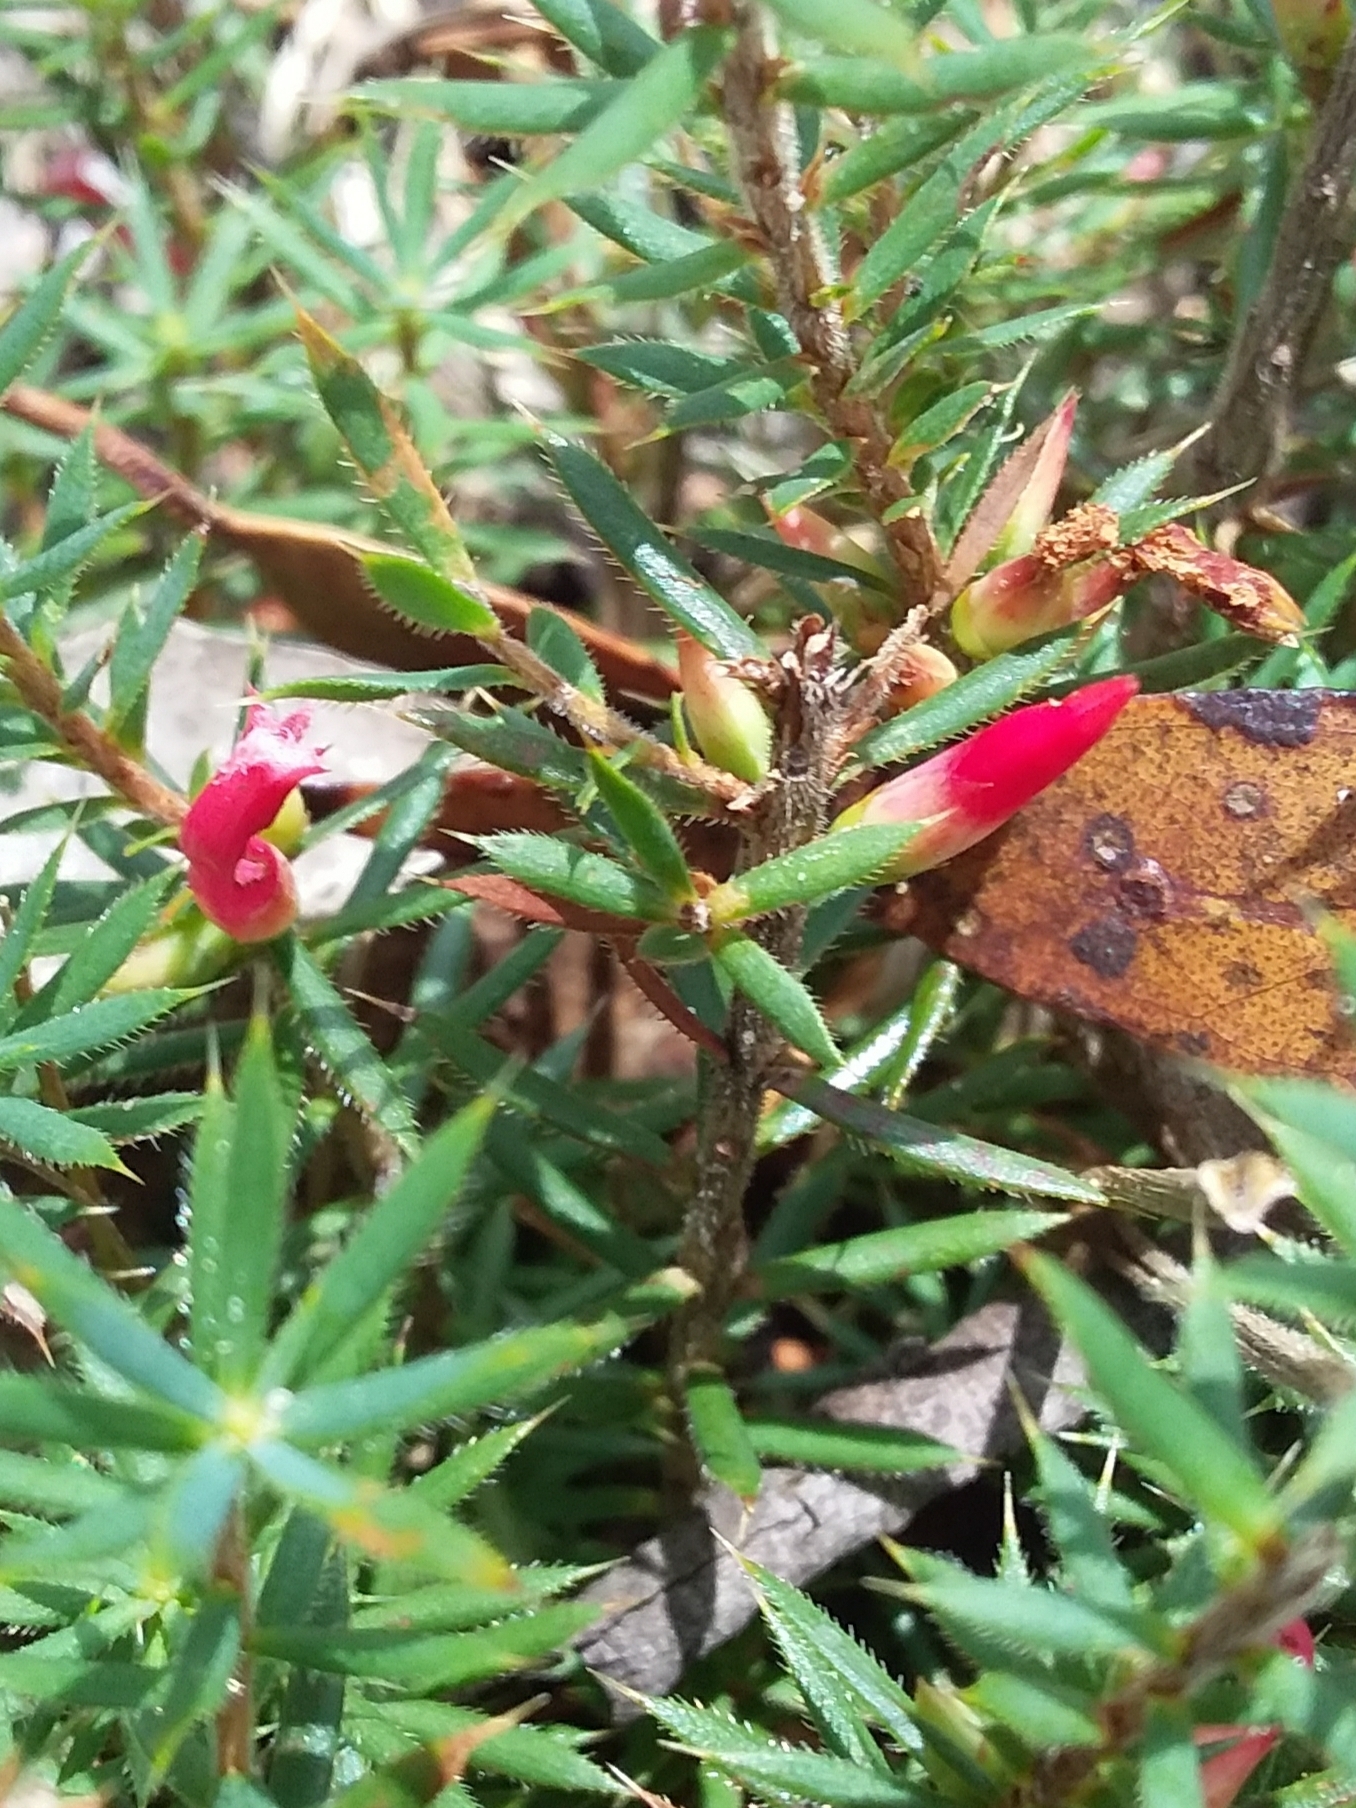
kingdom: Plantae
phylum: Tracheophyta
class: Magnoliopsida
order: Ericales
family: Ericaceae
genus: Styphelia
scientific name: Styphelia humifusa
